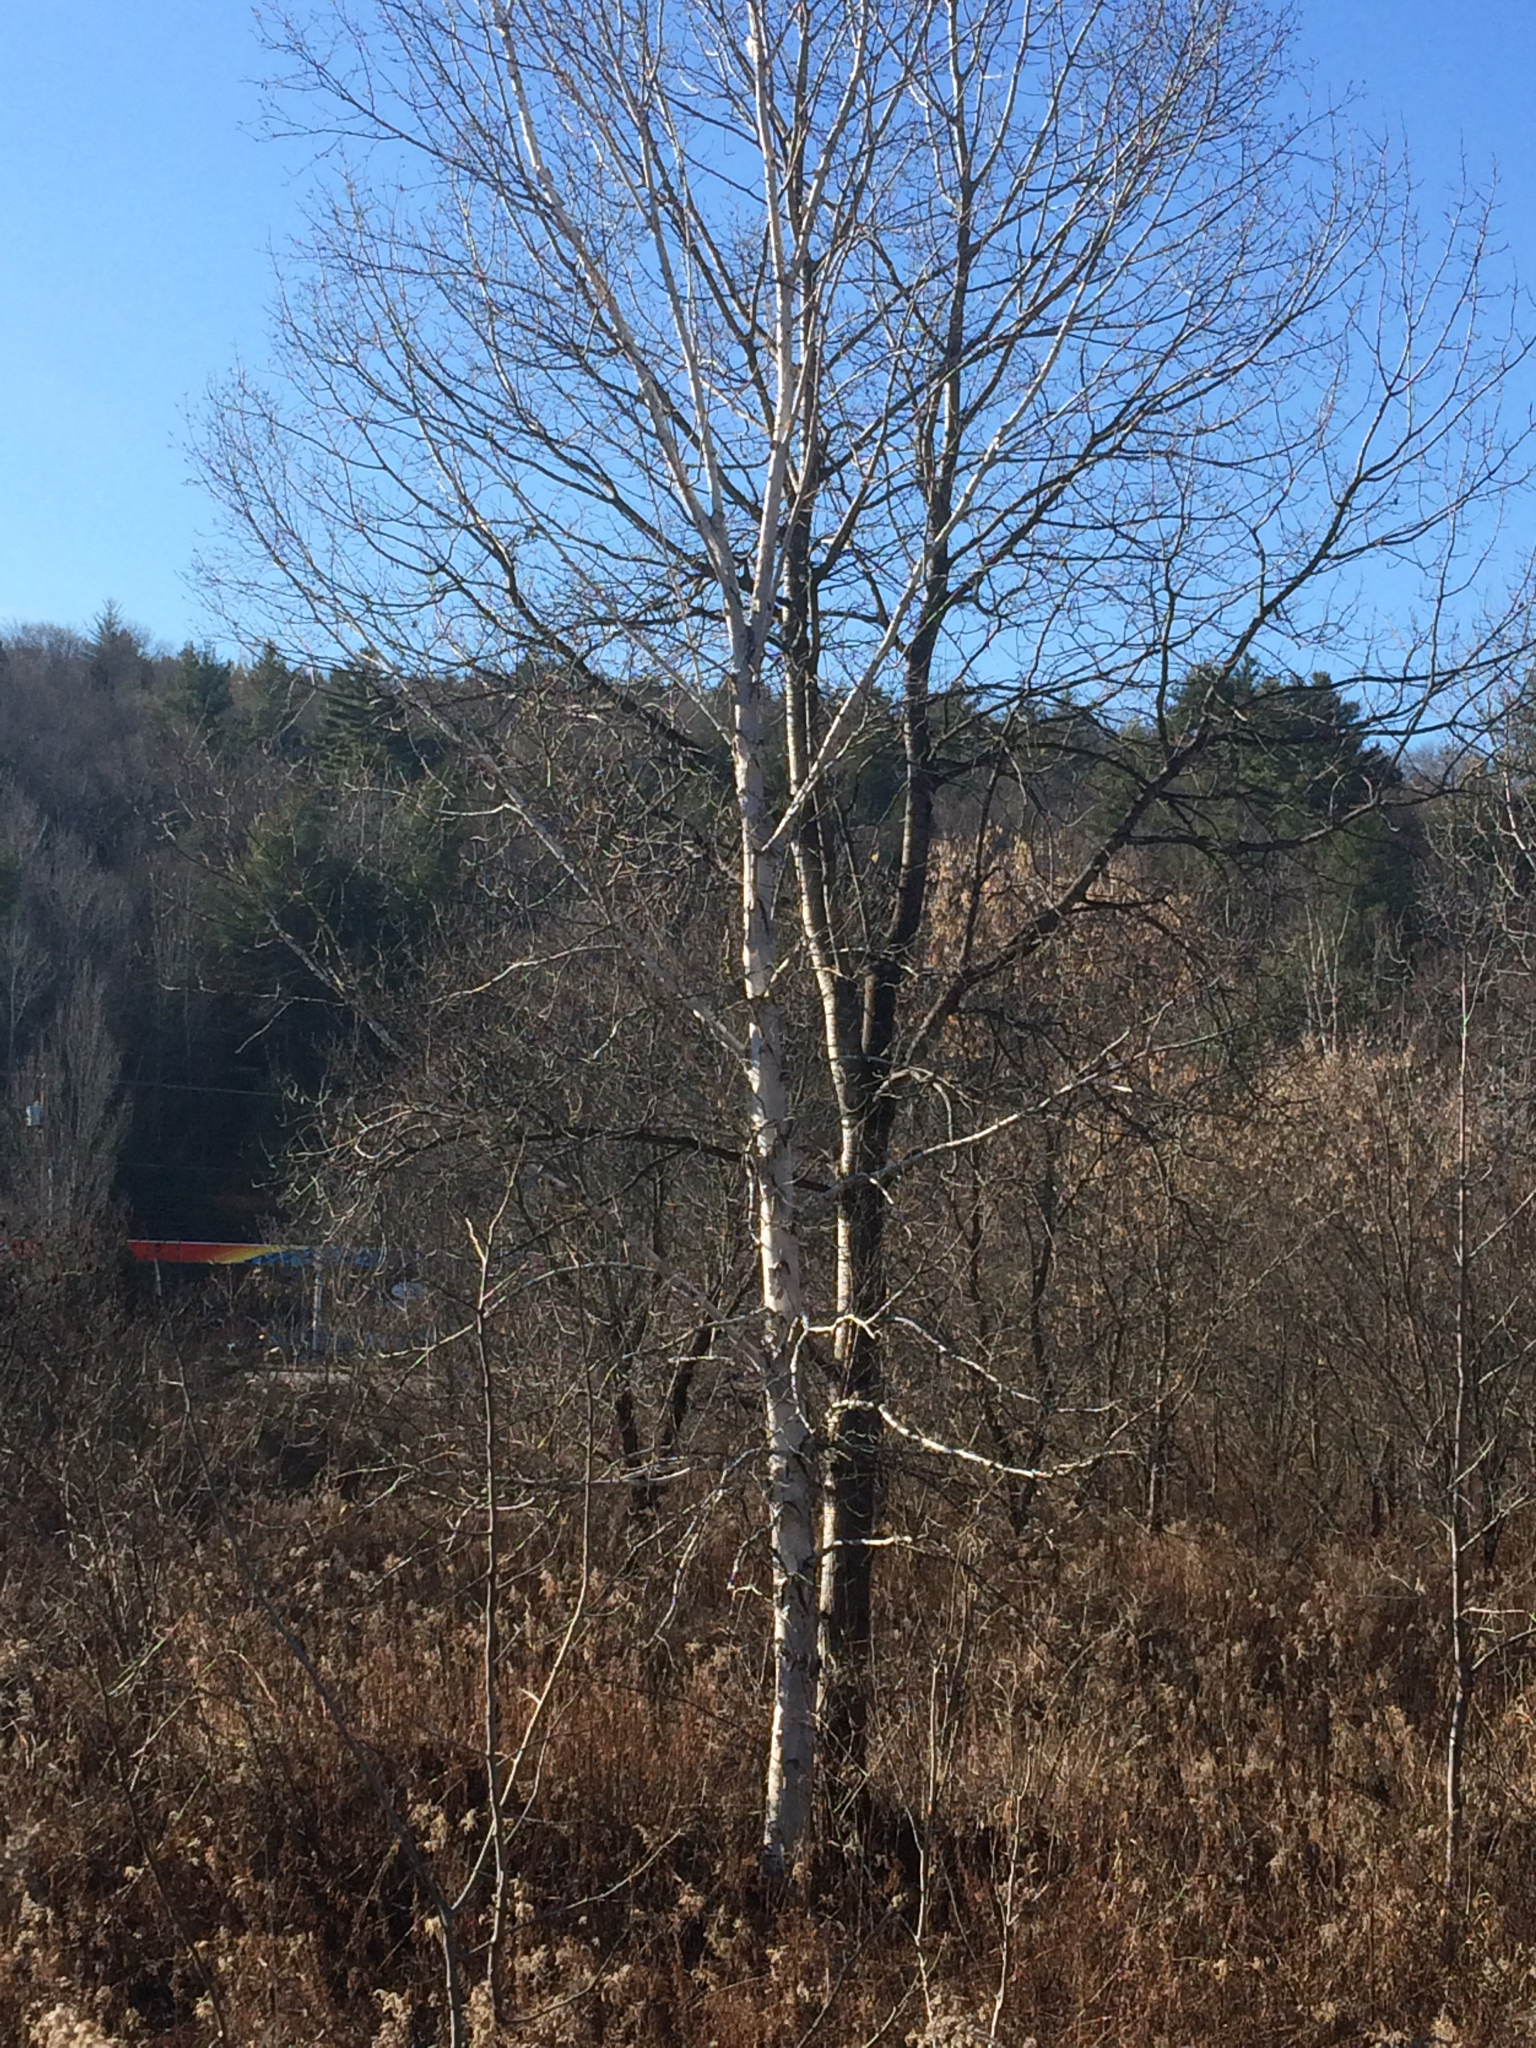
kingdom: Plantae
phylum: Tracheophyta
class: Magnoliopsida
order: Fagales
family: Betulaceae
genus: Betula
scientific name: Betula papyrifera
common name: Paper birch
